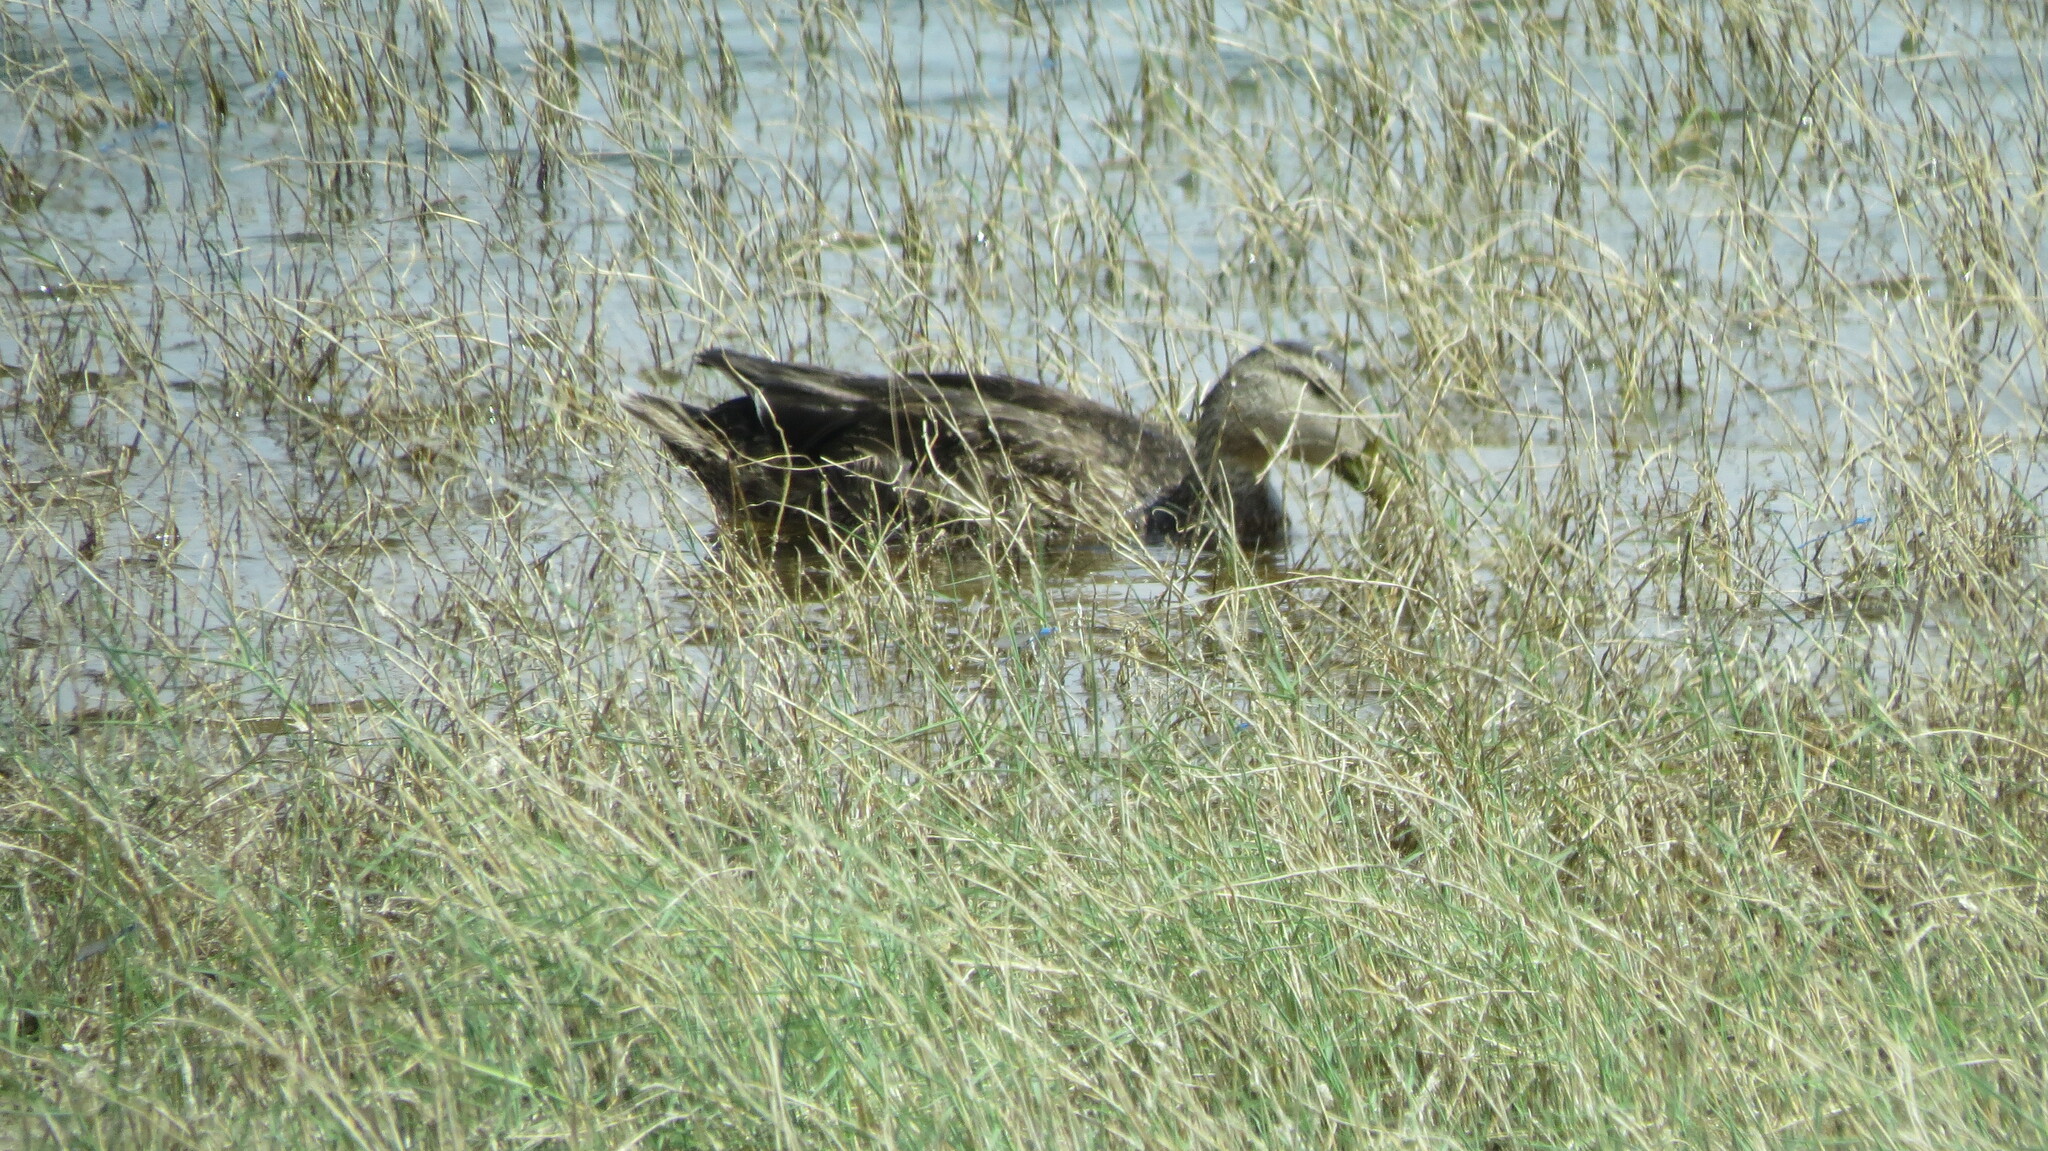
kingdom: Animalia
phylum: Chordata
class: Aves
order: Anseriformes
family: Anatidae
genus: Anas
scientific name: Anas diazi
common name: Mexican duck
